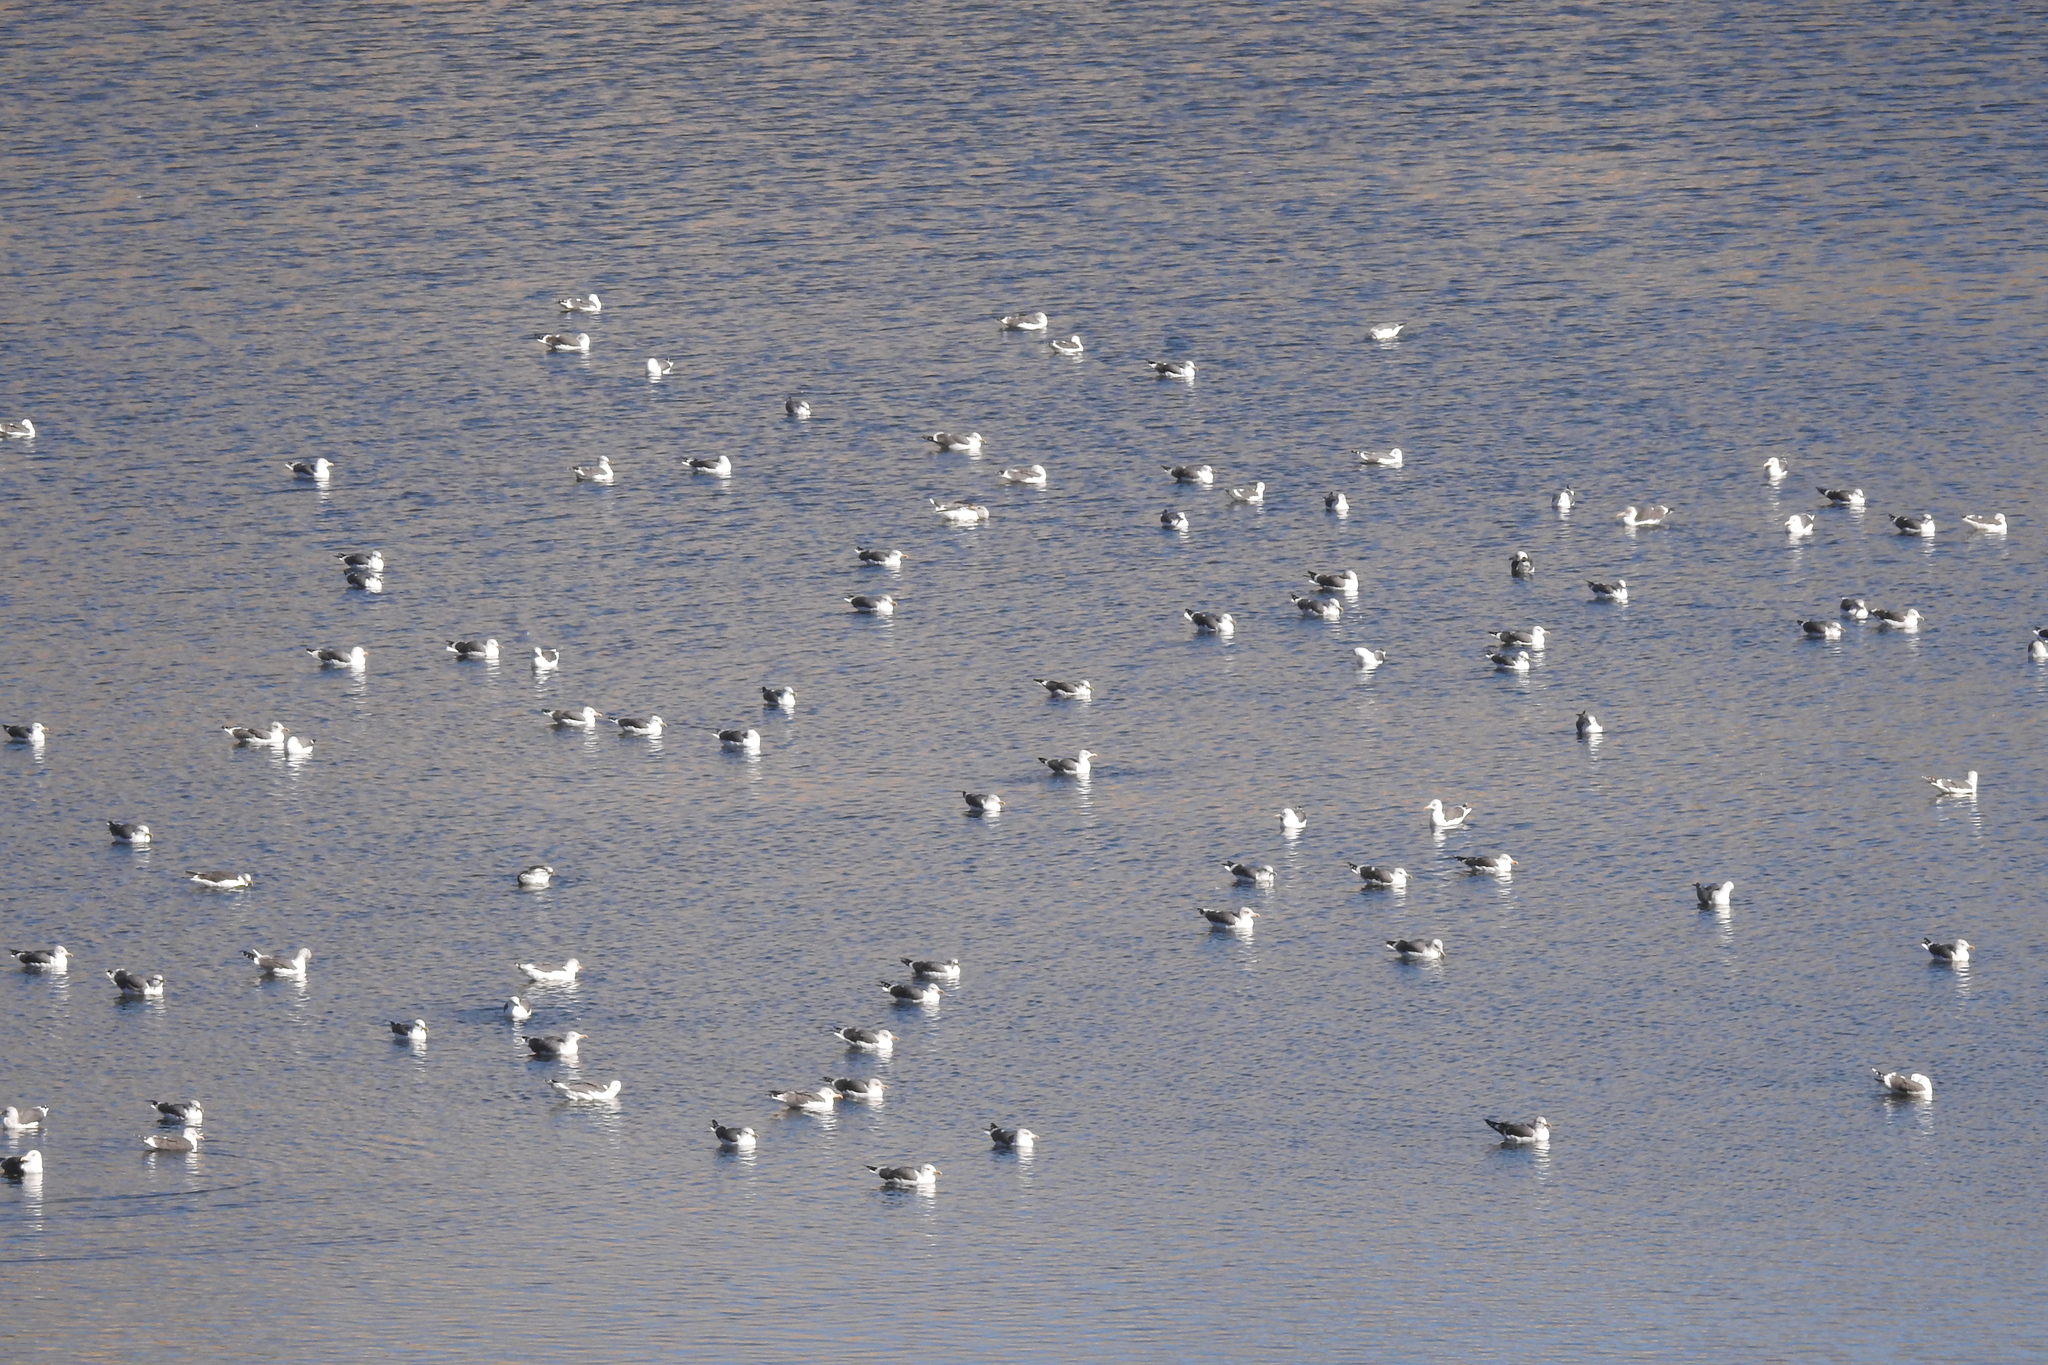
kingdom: Animalia
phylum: Chordata
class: Aves
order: Charadriiformes
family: Laridae
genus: Larus
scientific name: Larus fuscus
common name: Lesser black-backed gull
